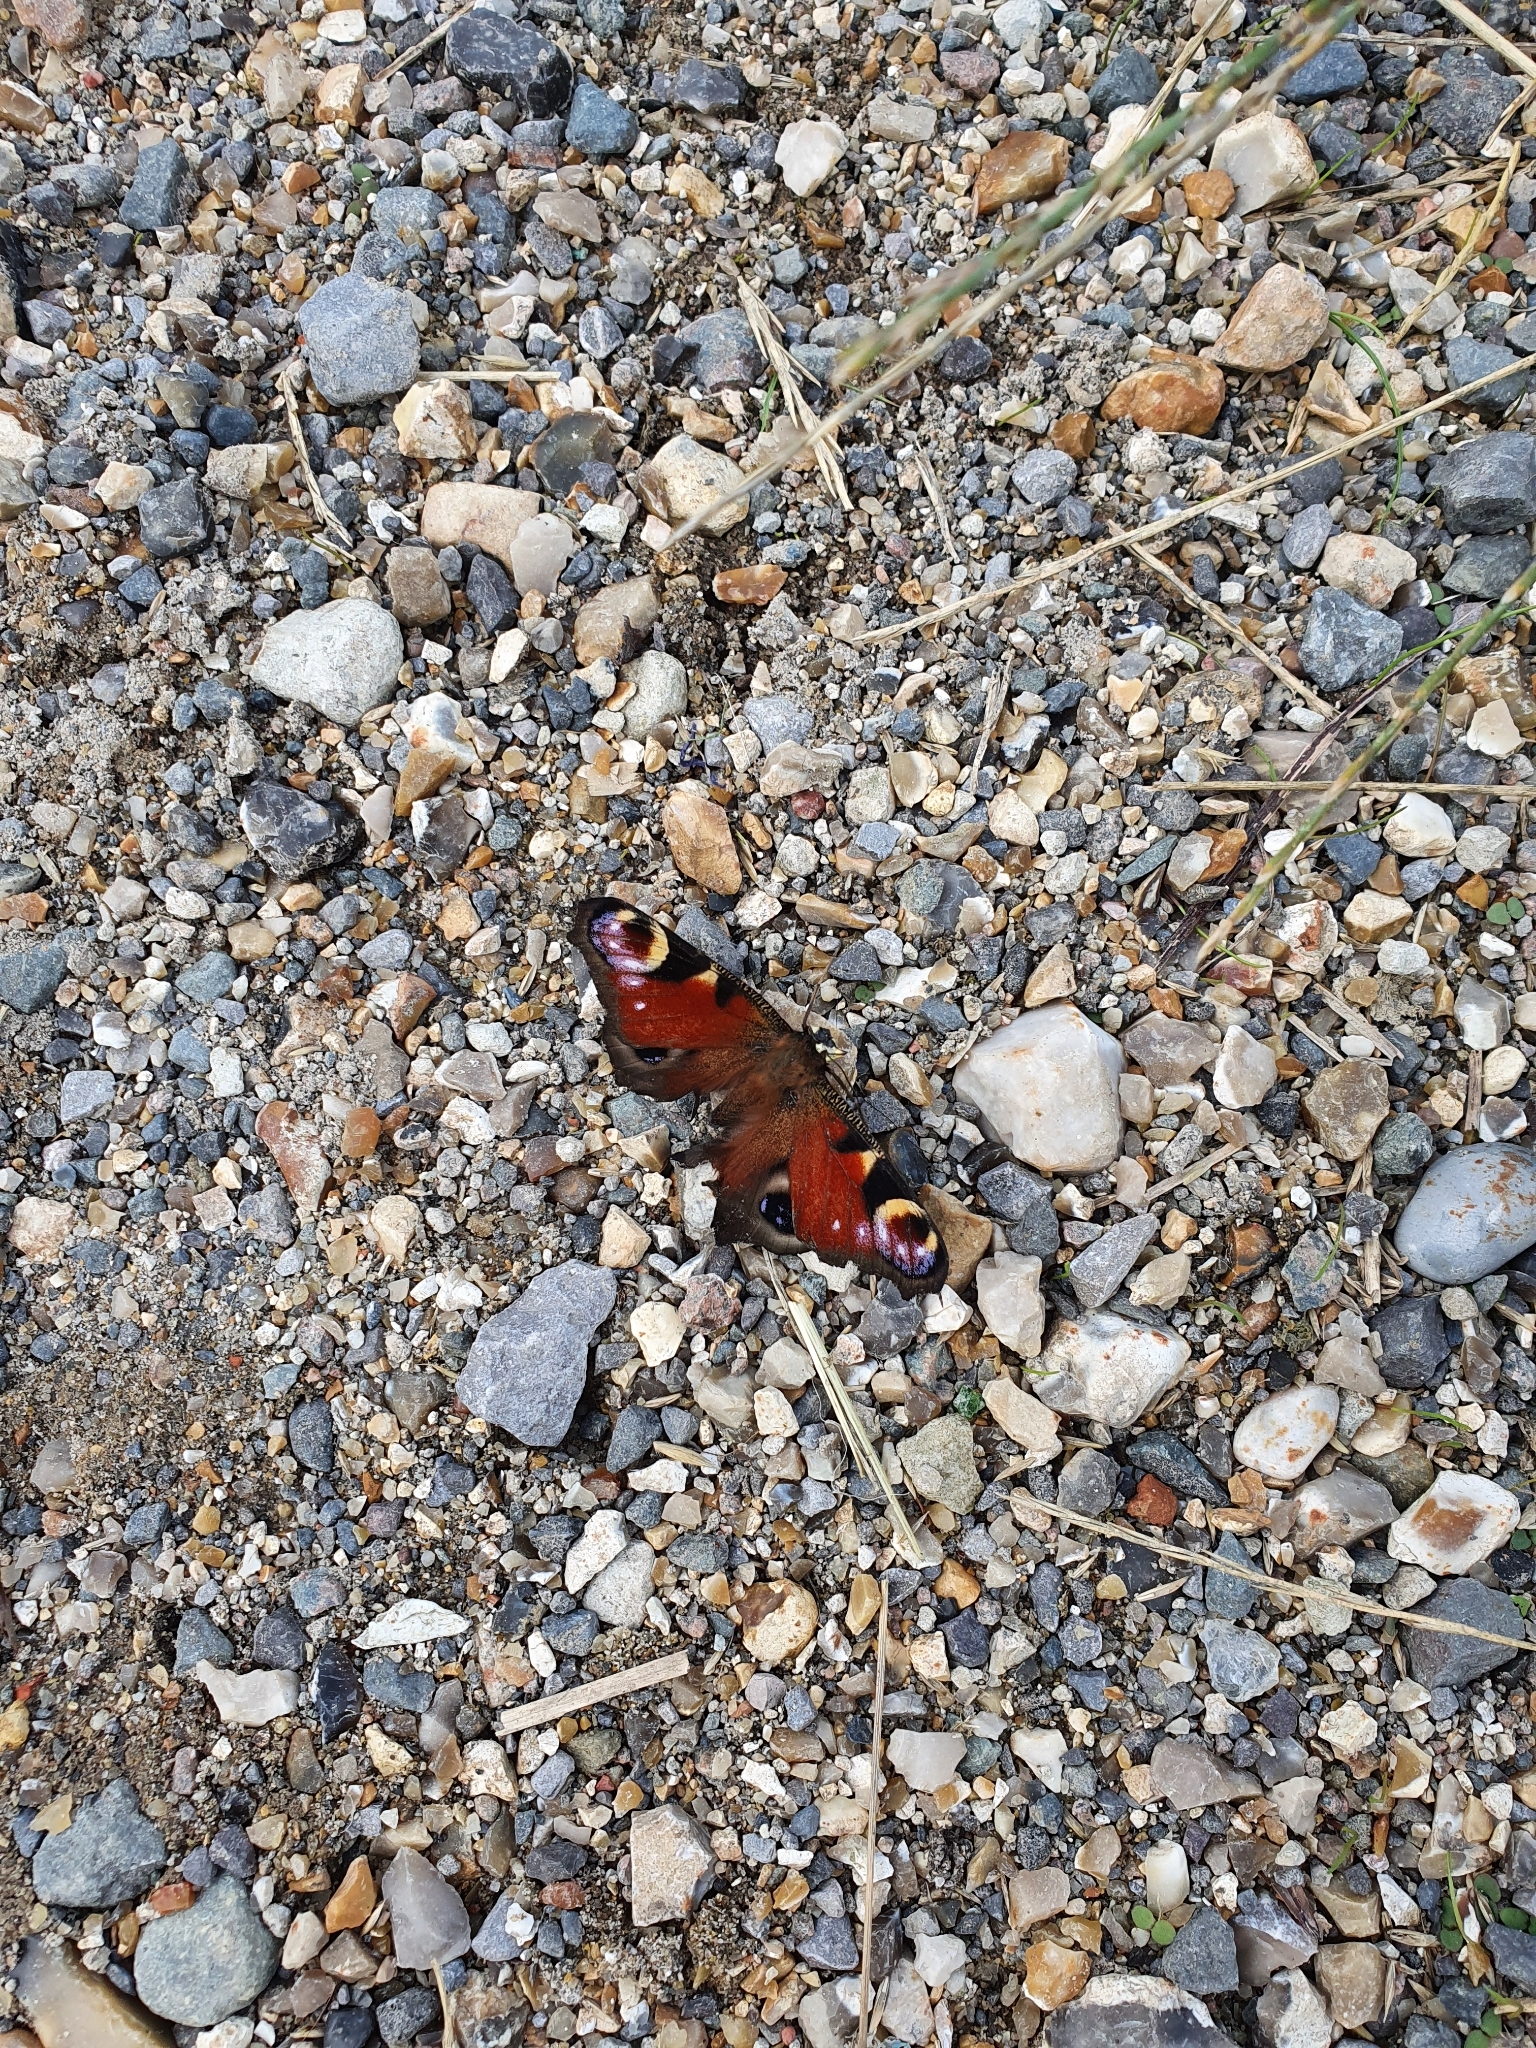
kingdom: Animalia
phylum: Arthropoda
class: Insecta
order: Lepidoptera
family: Nymphalidae
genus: Aglais
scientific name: Aglais io
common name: Peacock
